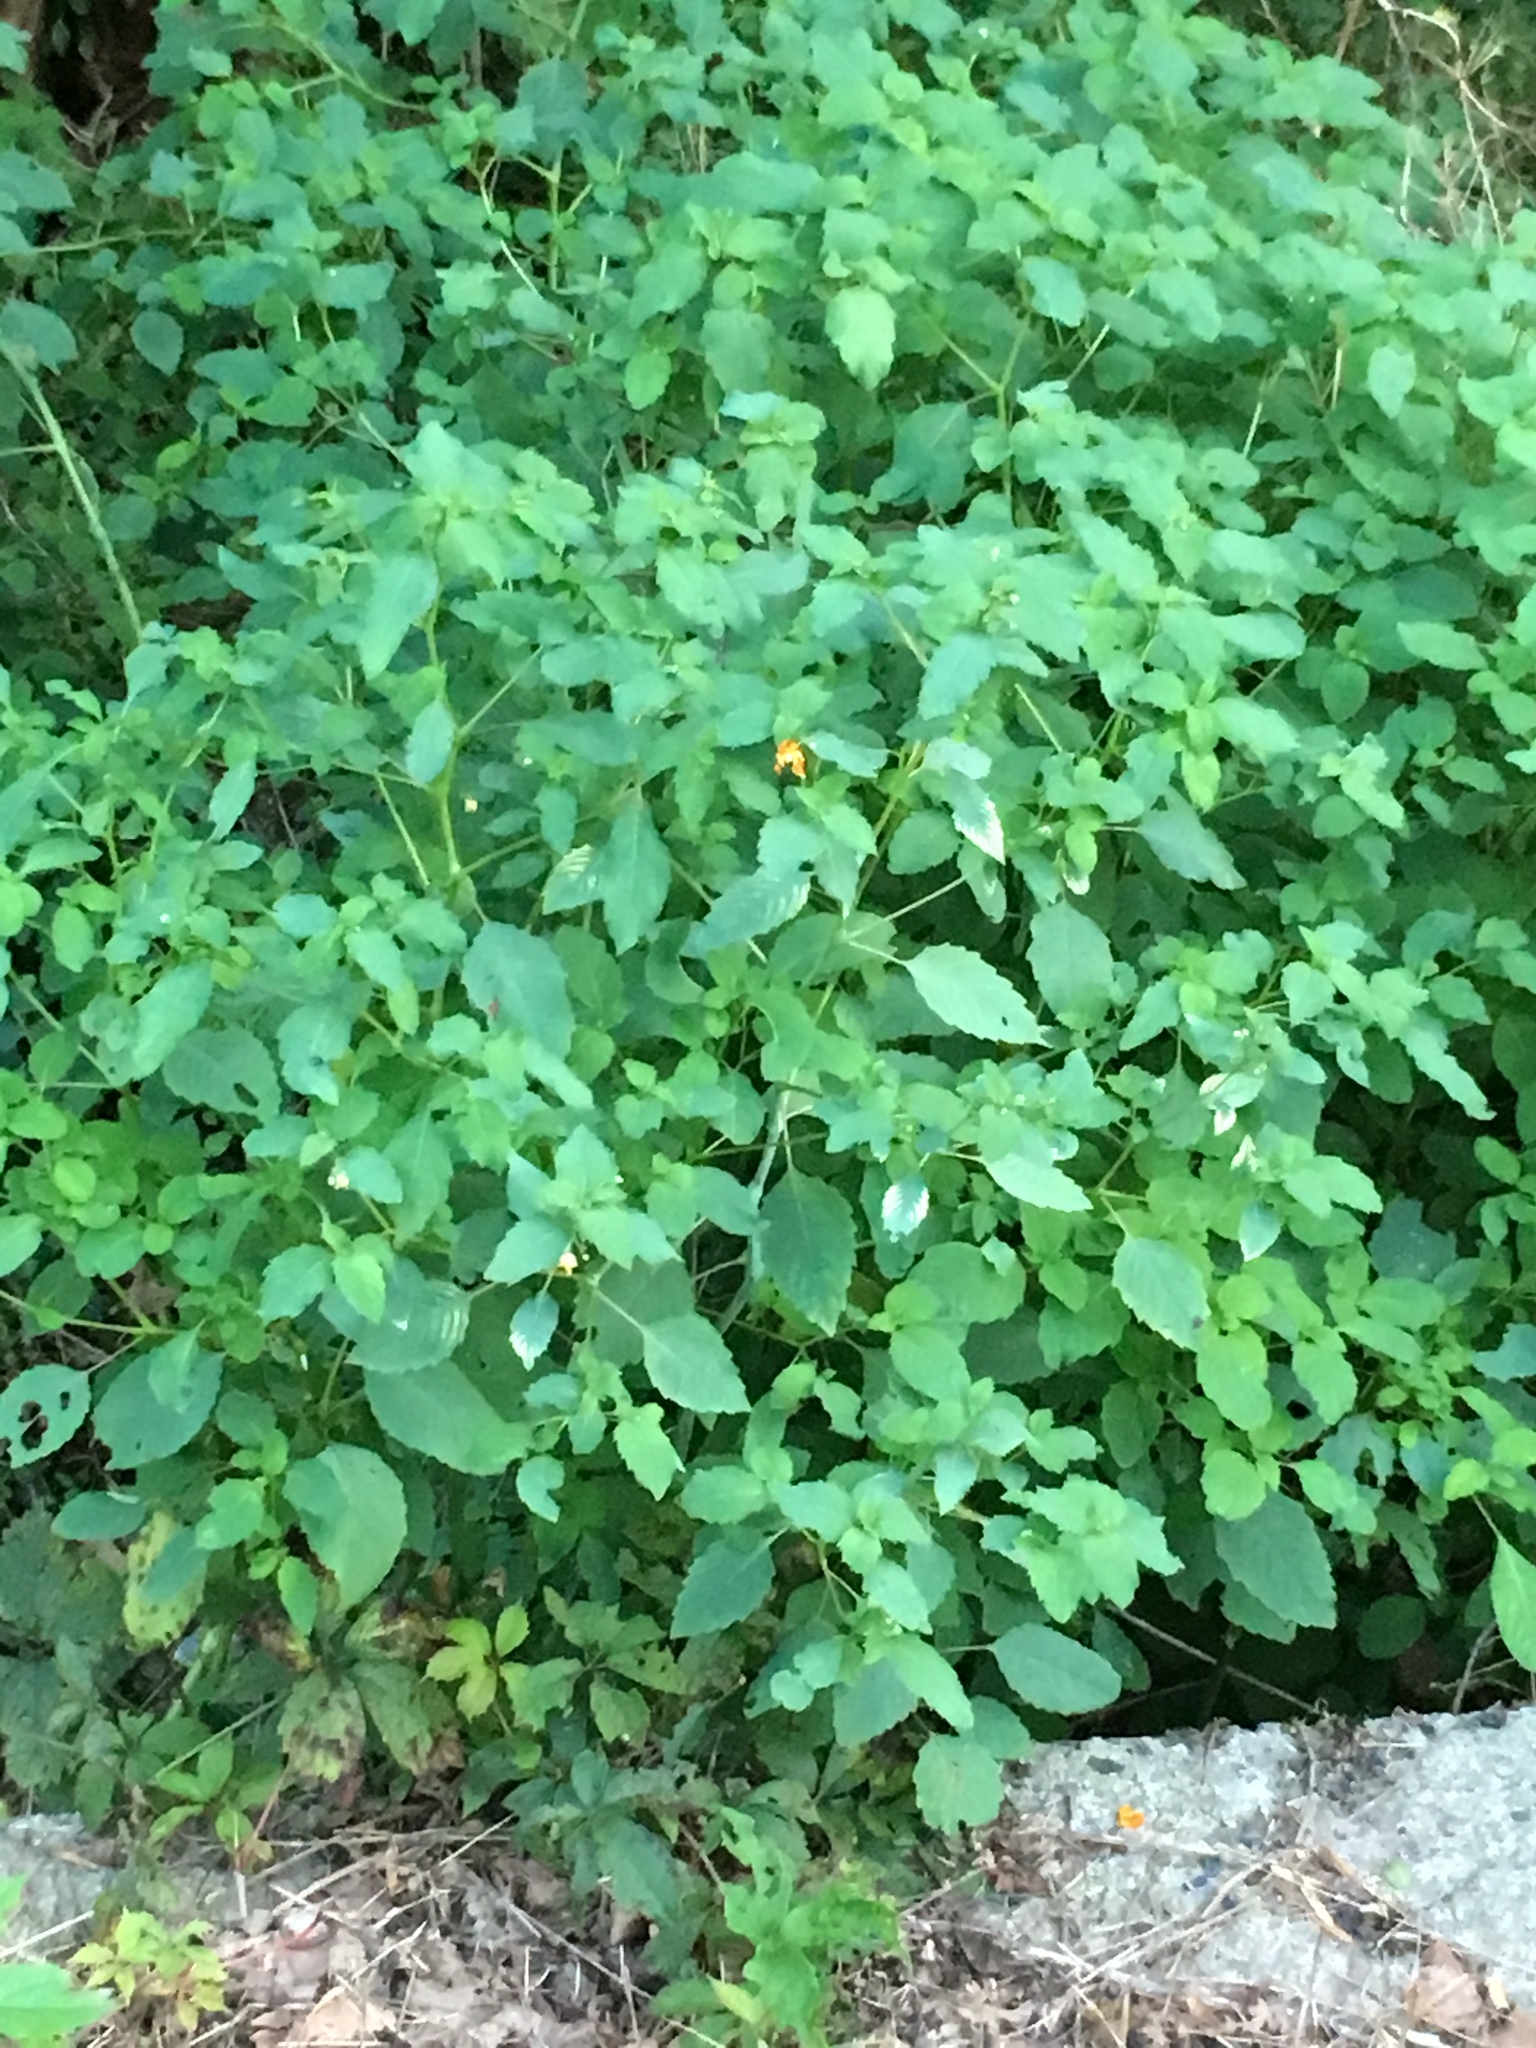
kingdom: Plantae
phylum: Tracheophyta
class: Magnoliopsida
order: Ericales
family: Balsaminaceae
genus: Impatiens
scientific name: Impatiens capensis
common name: Orange balsam
